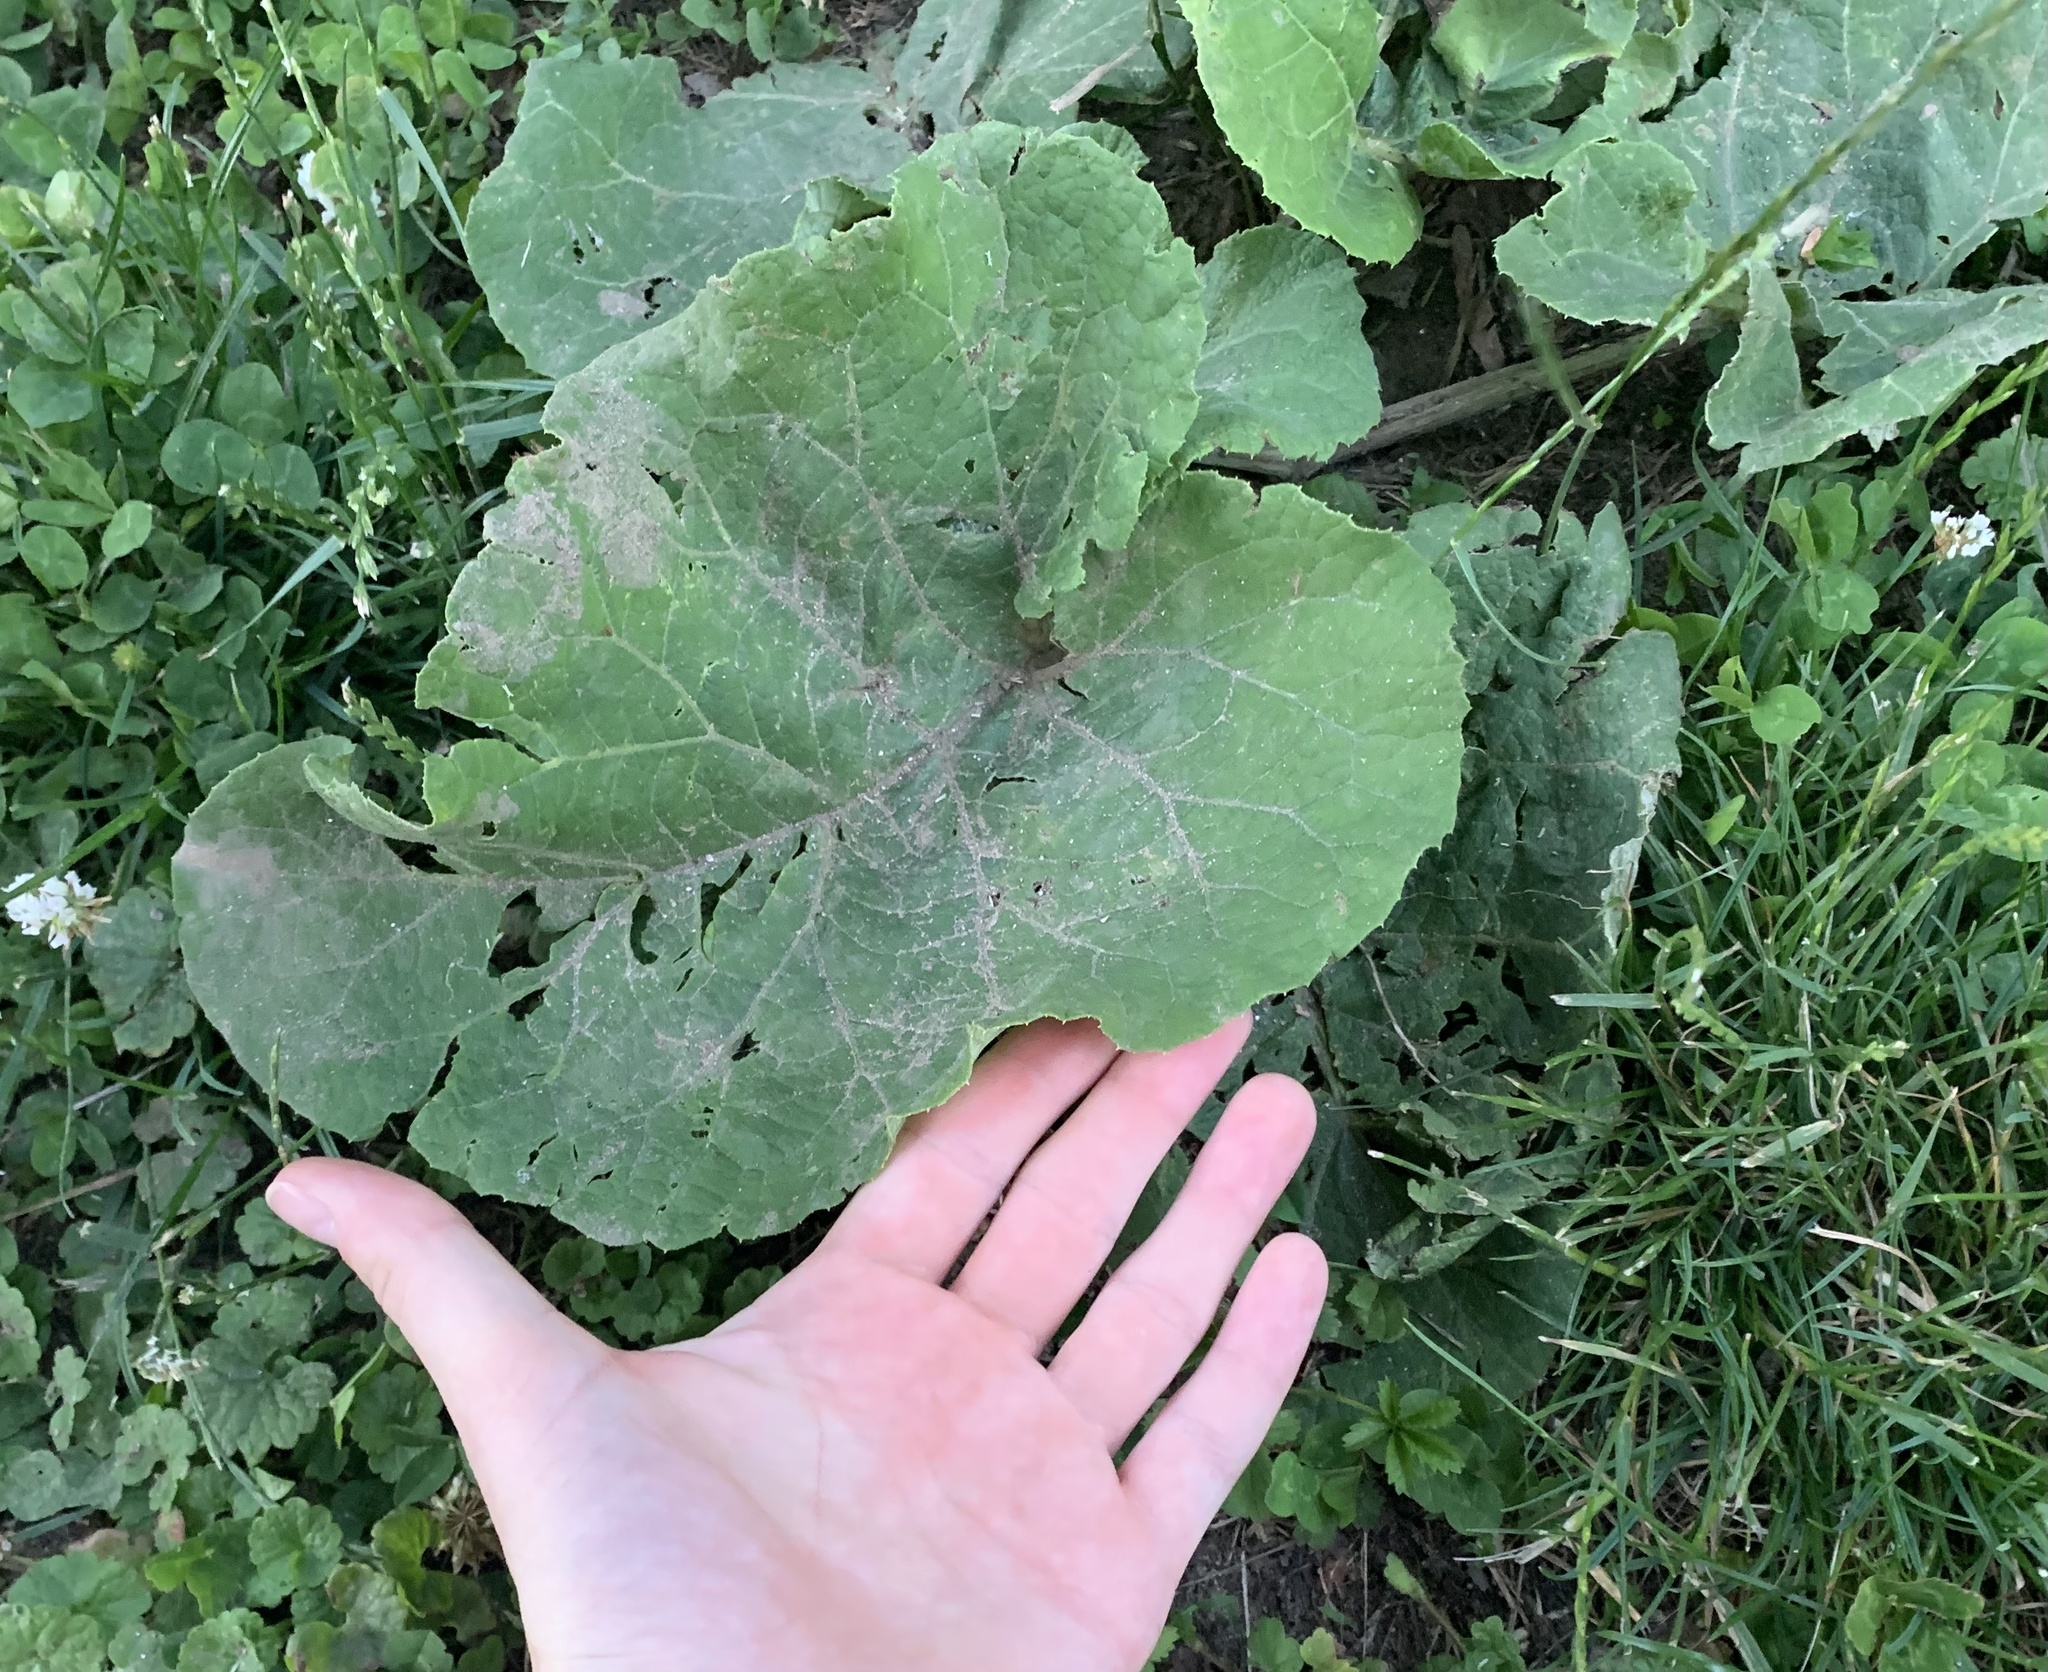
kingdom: Plantae
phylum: Tracheophyta
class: Magnoliopsida
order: Asterales
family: Asteraceae
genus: Arctium
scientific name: Arctium
